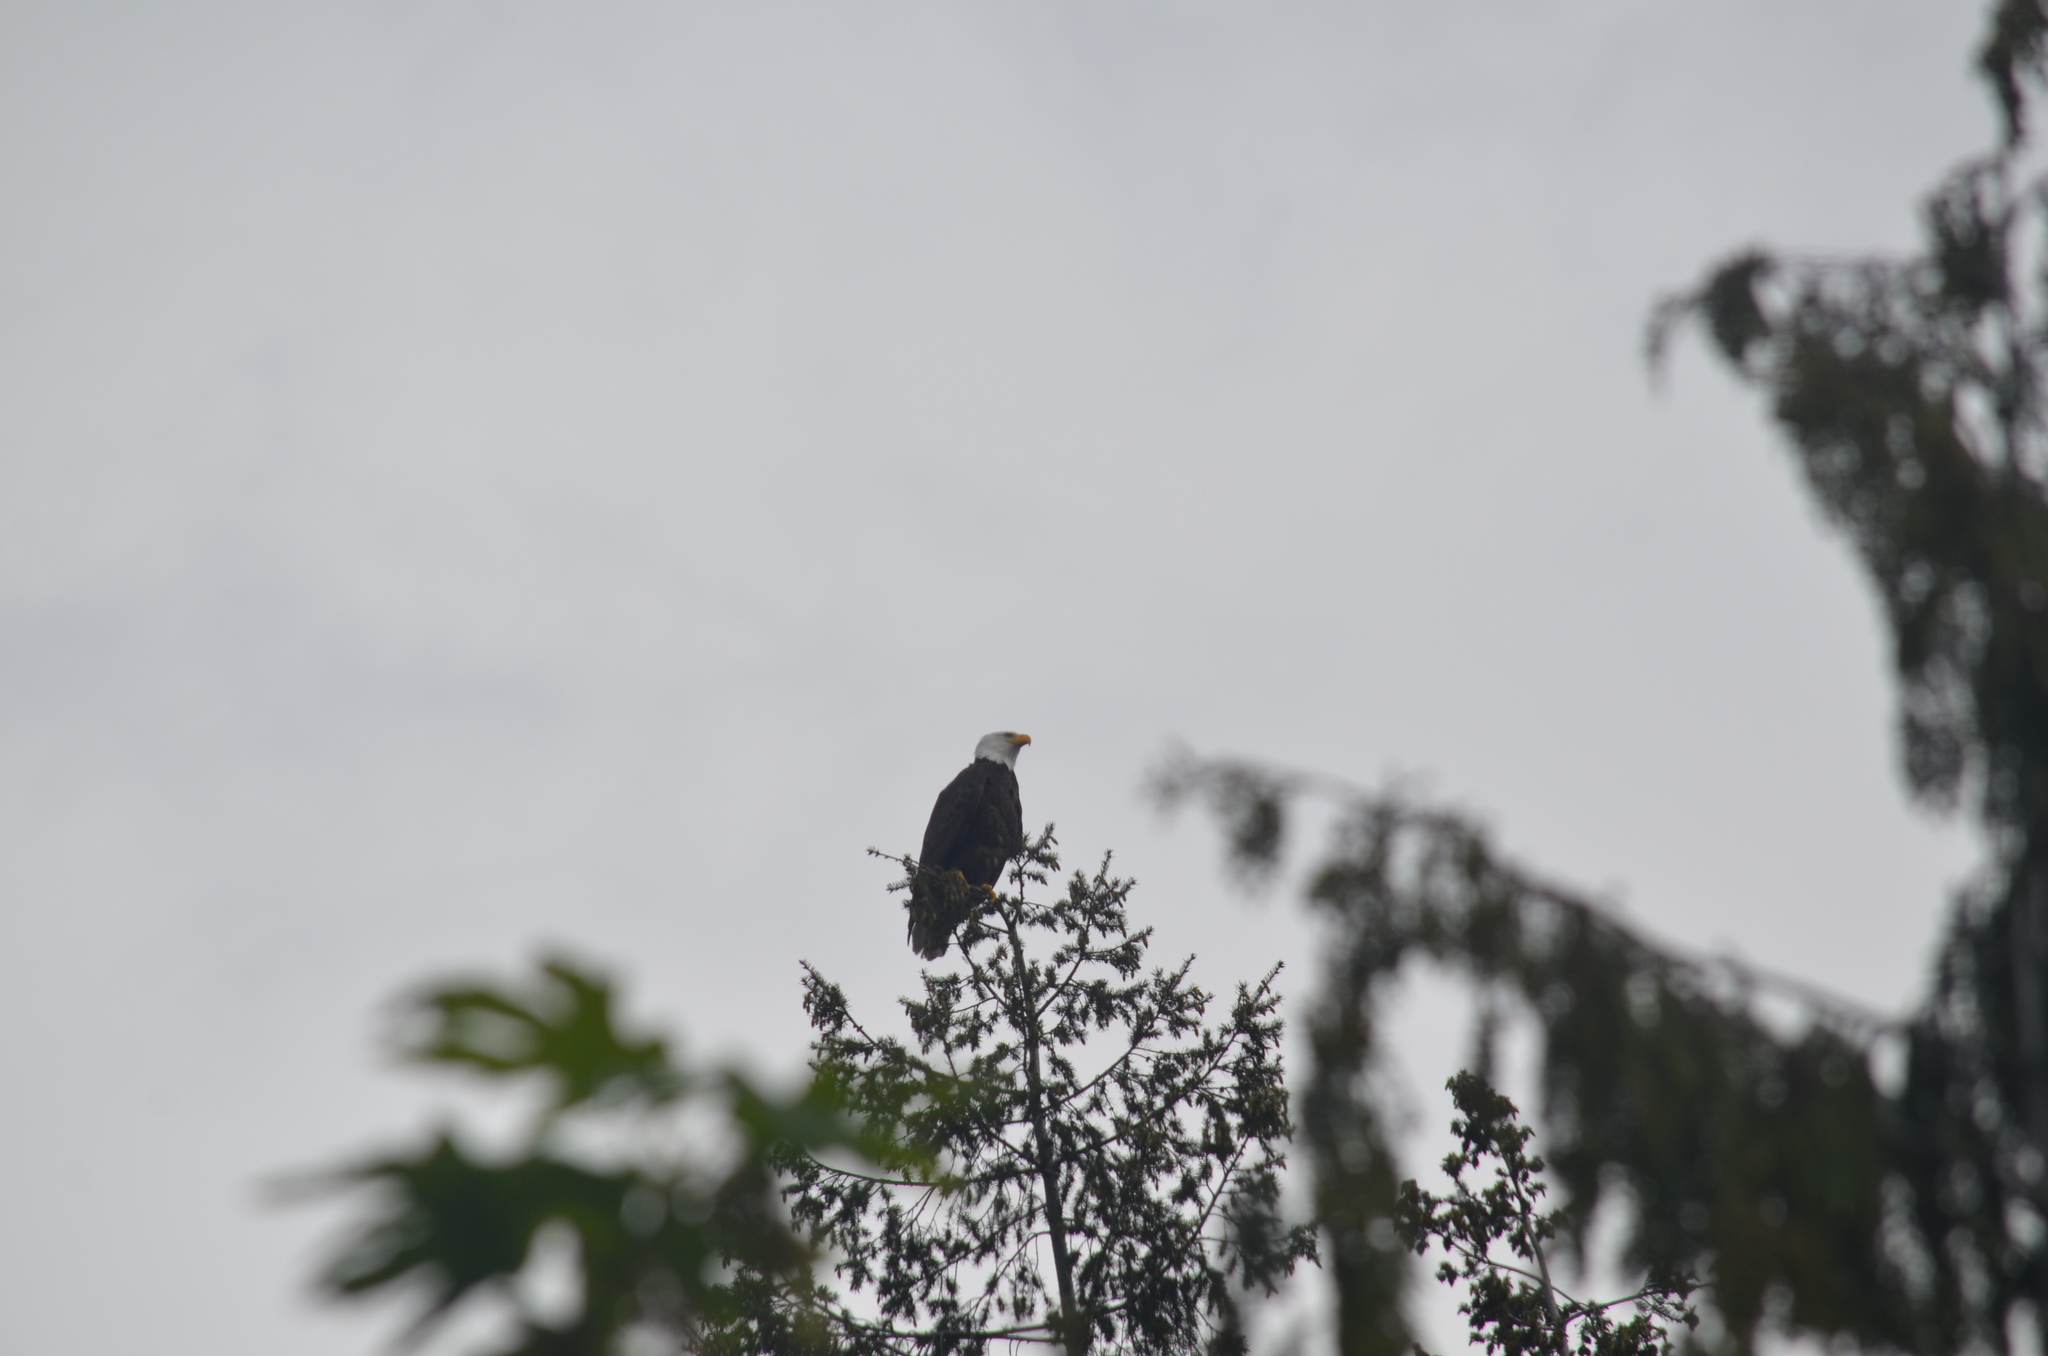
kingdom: Animalia
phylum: Chordata
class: Aves
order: Accipitriformes
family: Accipitridae
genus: Haliaeetus
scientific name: Haliaeetus leucocephalus
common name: Bald eagle
